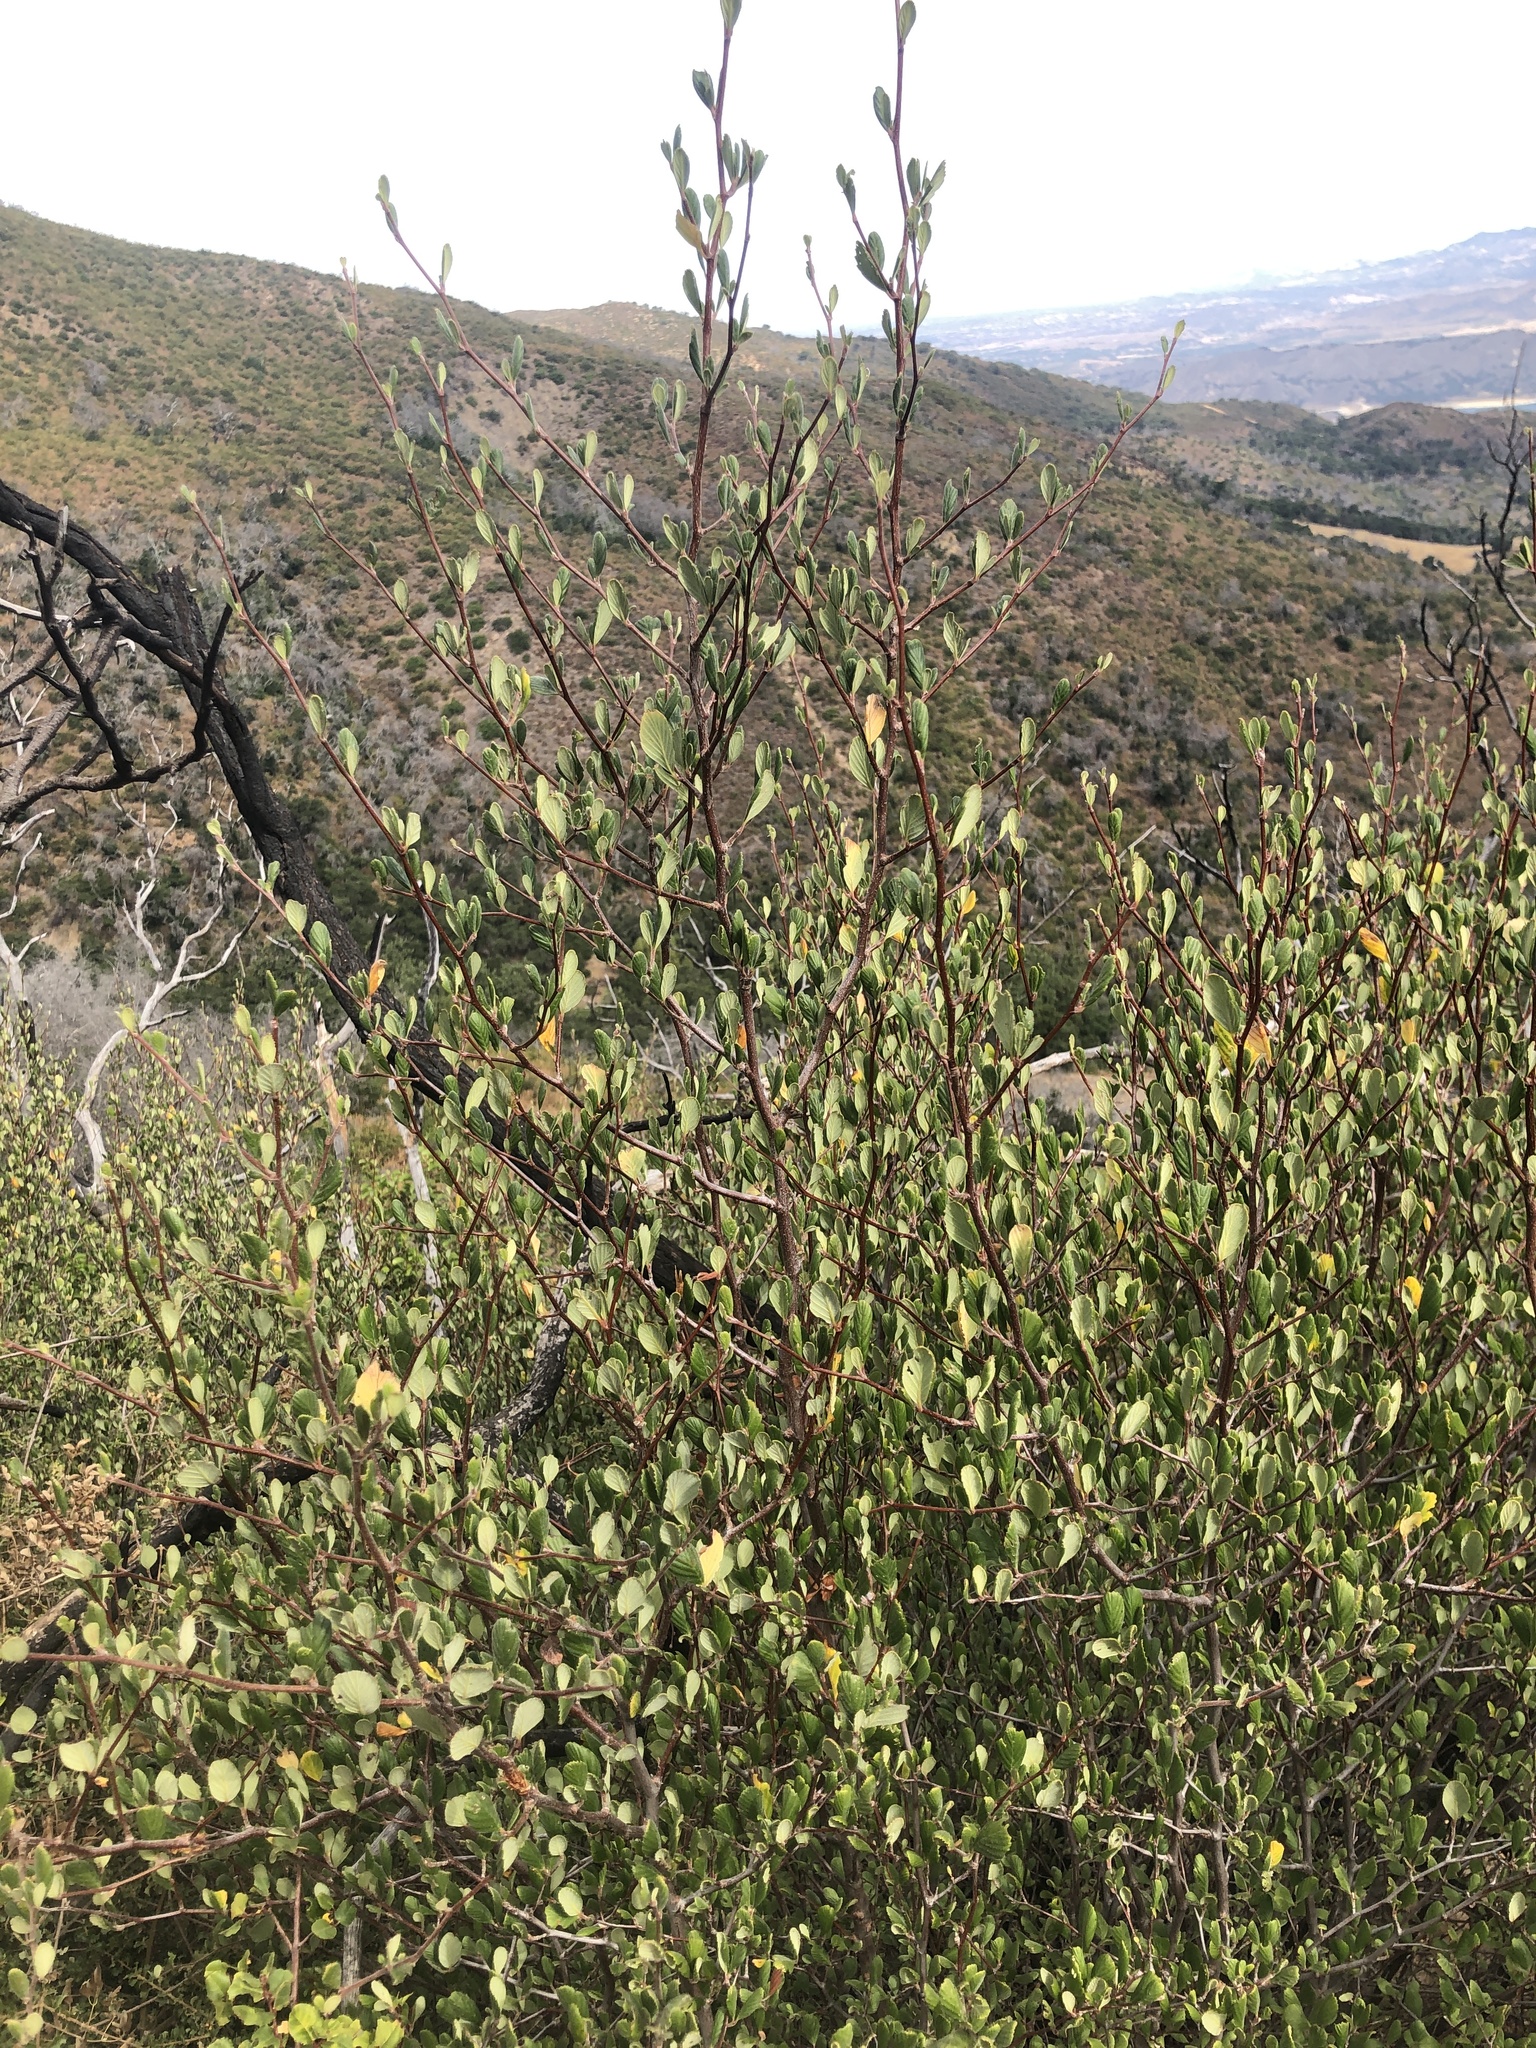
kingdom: Plantae
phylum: Tracheophyta
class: Magnoliopsida
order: Rosales
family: Rosaceae
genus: Cercocarpus
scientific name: Cercocarpus betuloides
